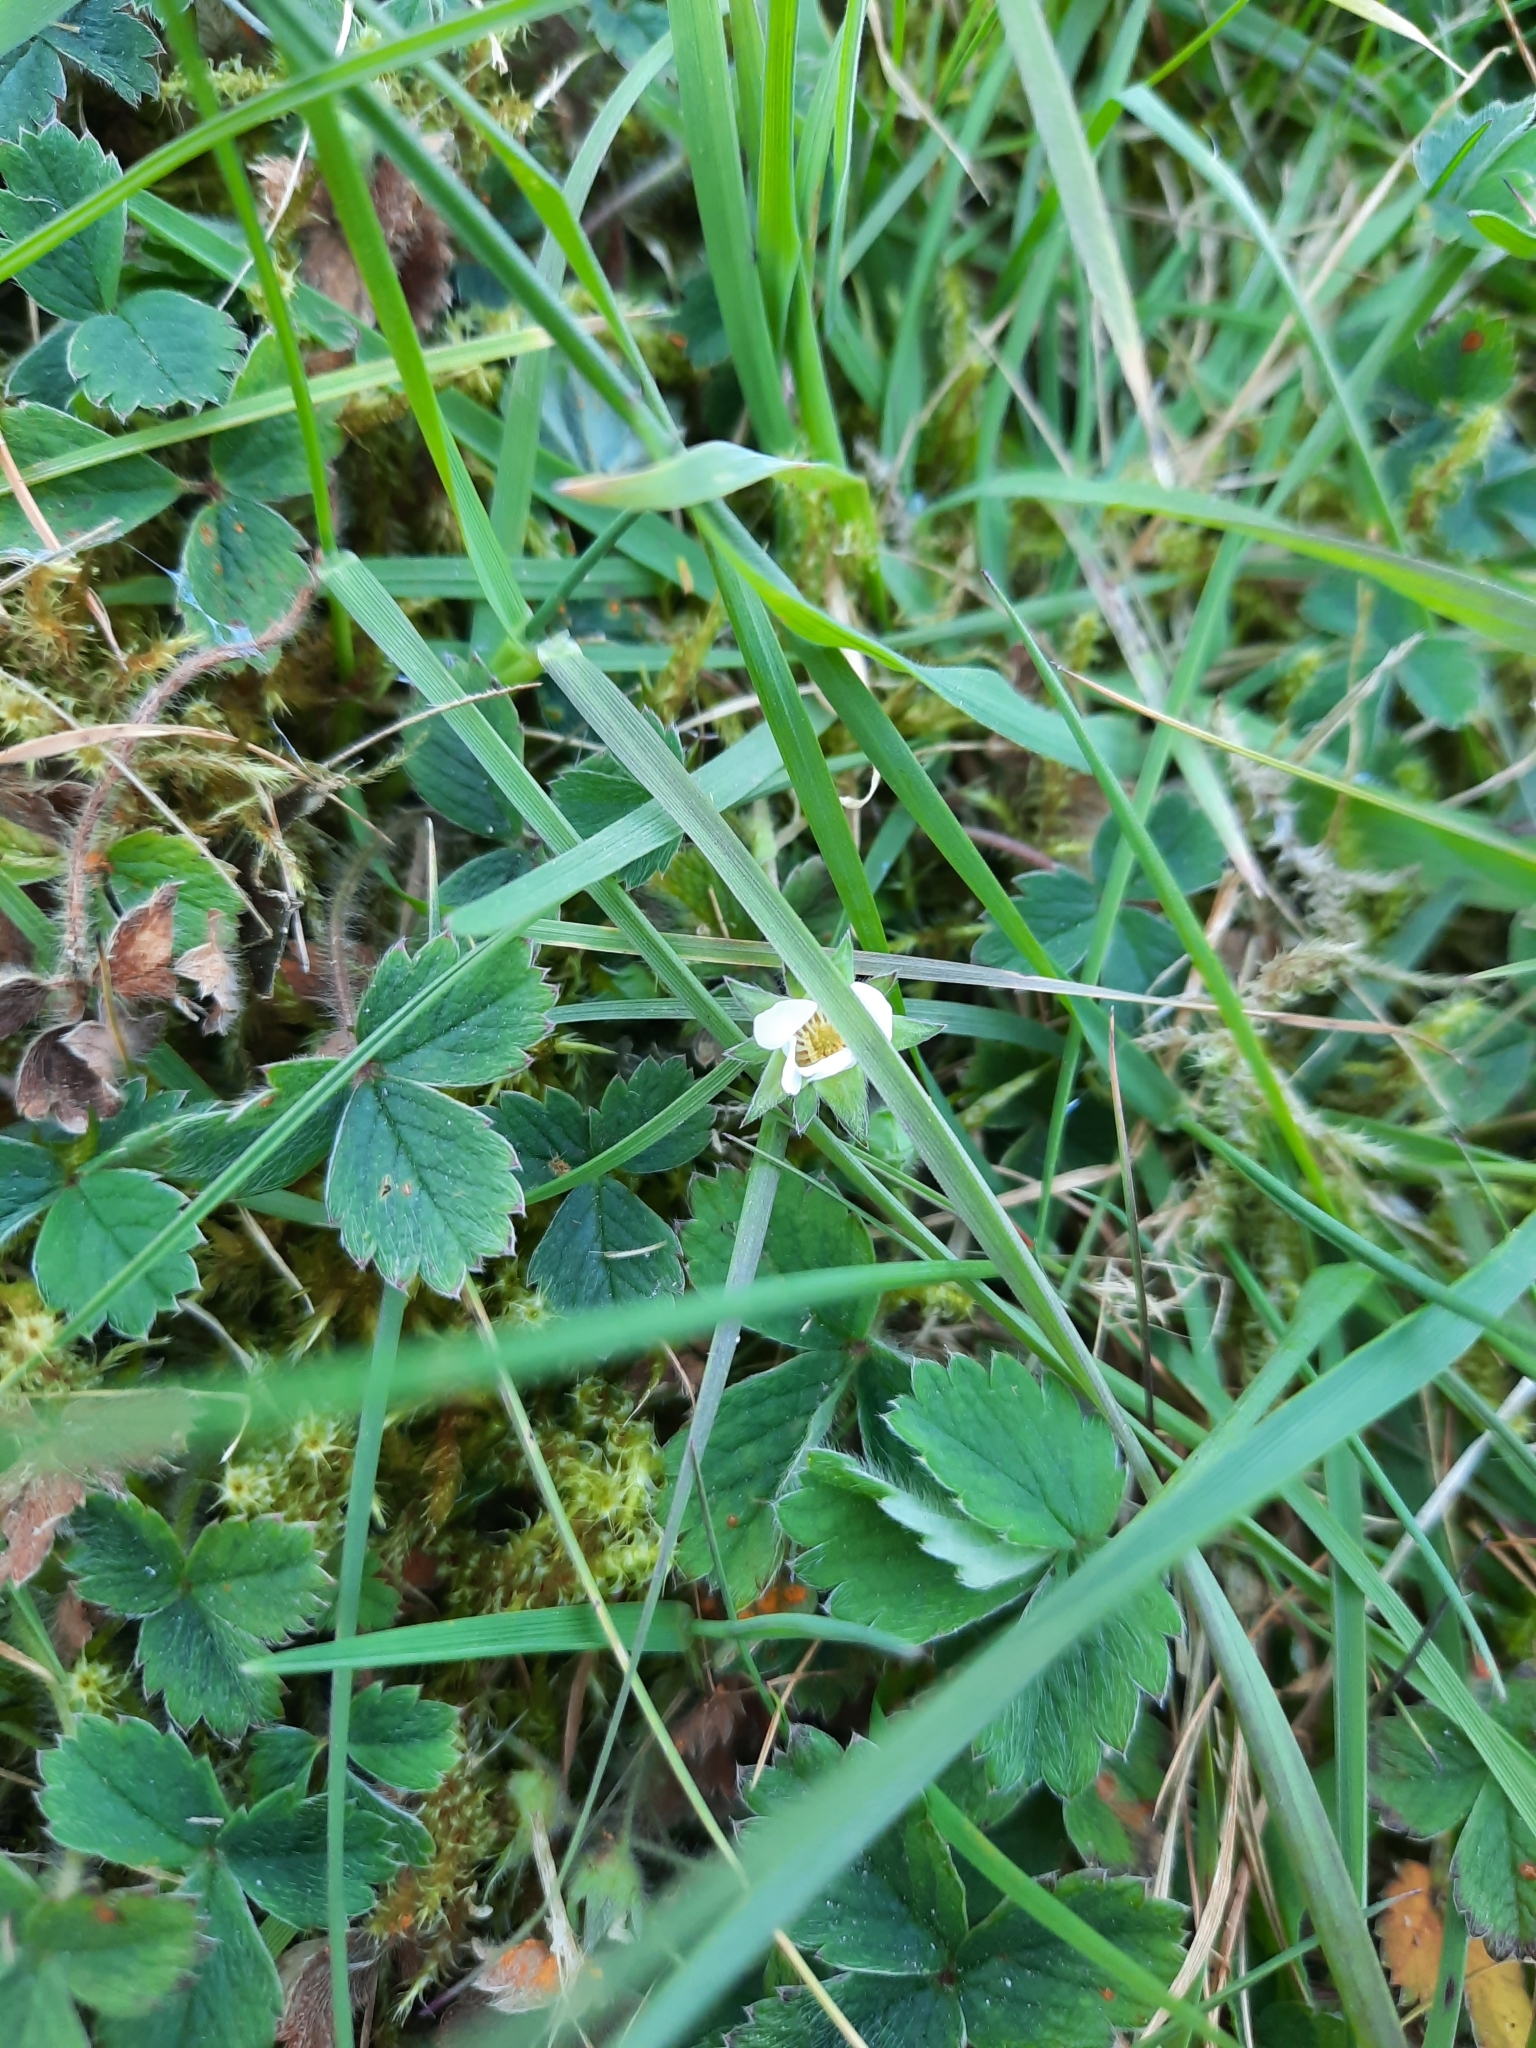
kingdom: Plantae
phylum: Tracheophyta
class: Magnoliopsida
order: Rosales
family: Rosaceae
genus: Potentilla
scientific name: Potentilla sterilis
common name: Barren strawberry
